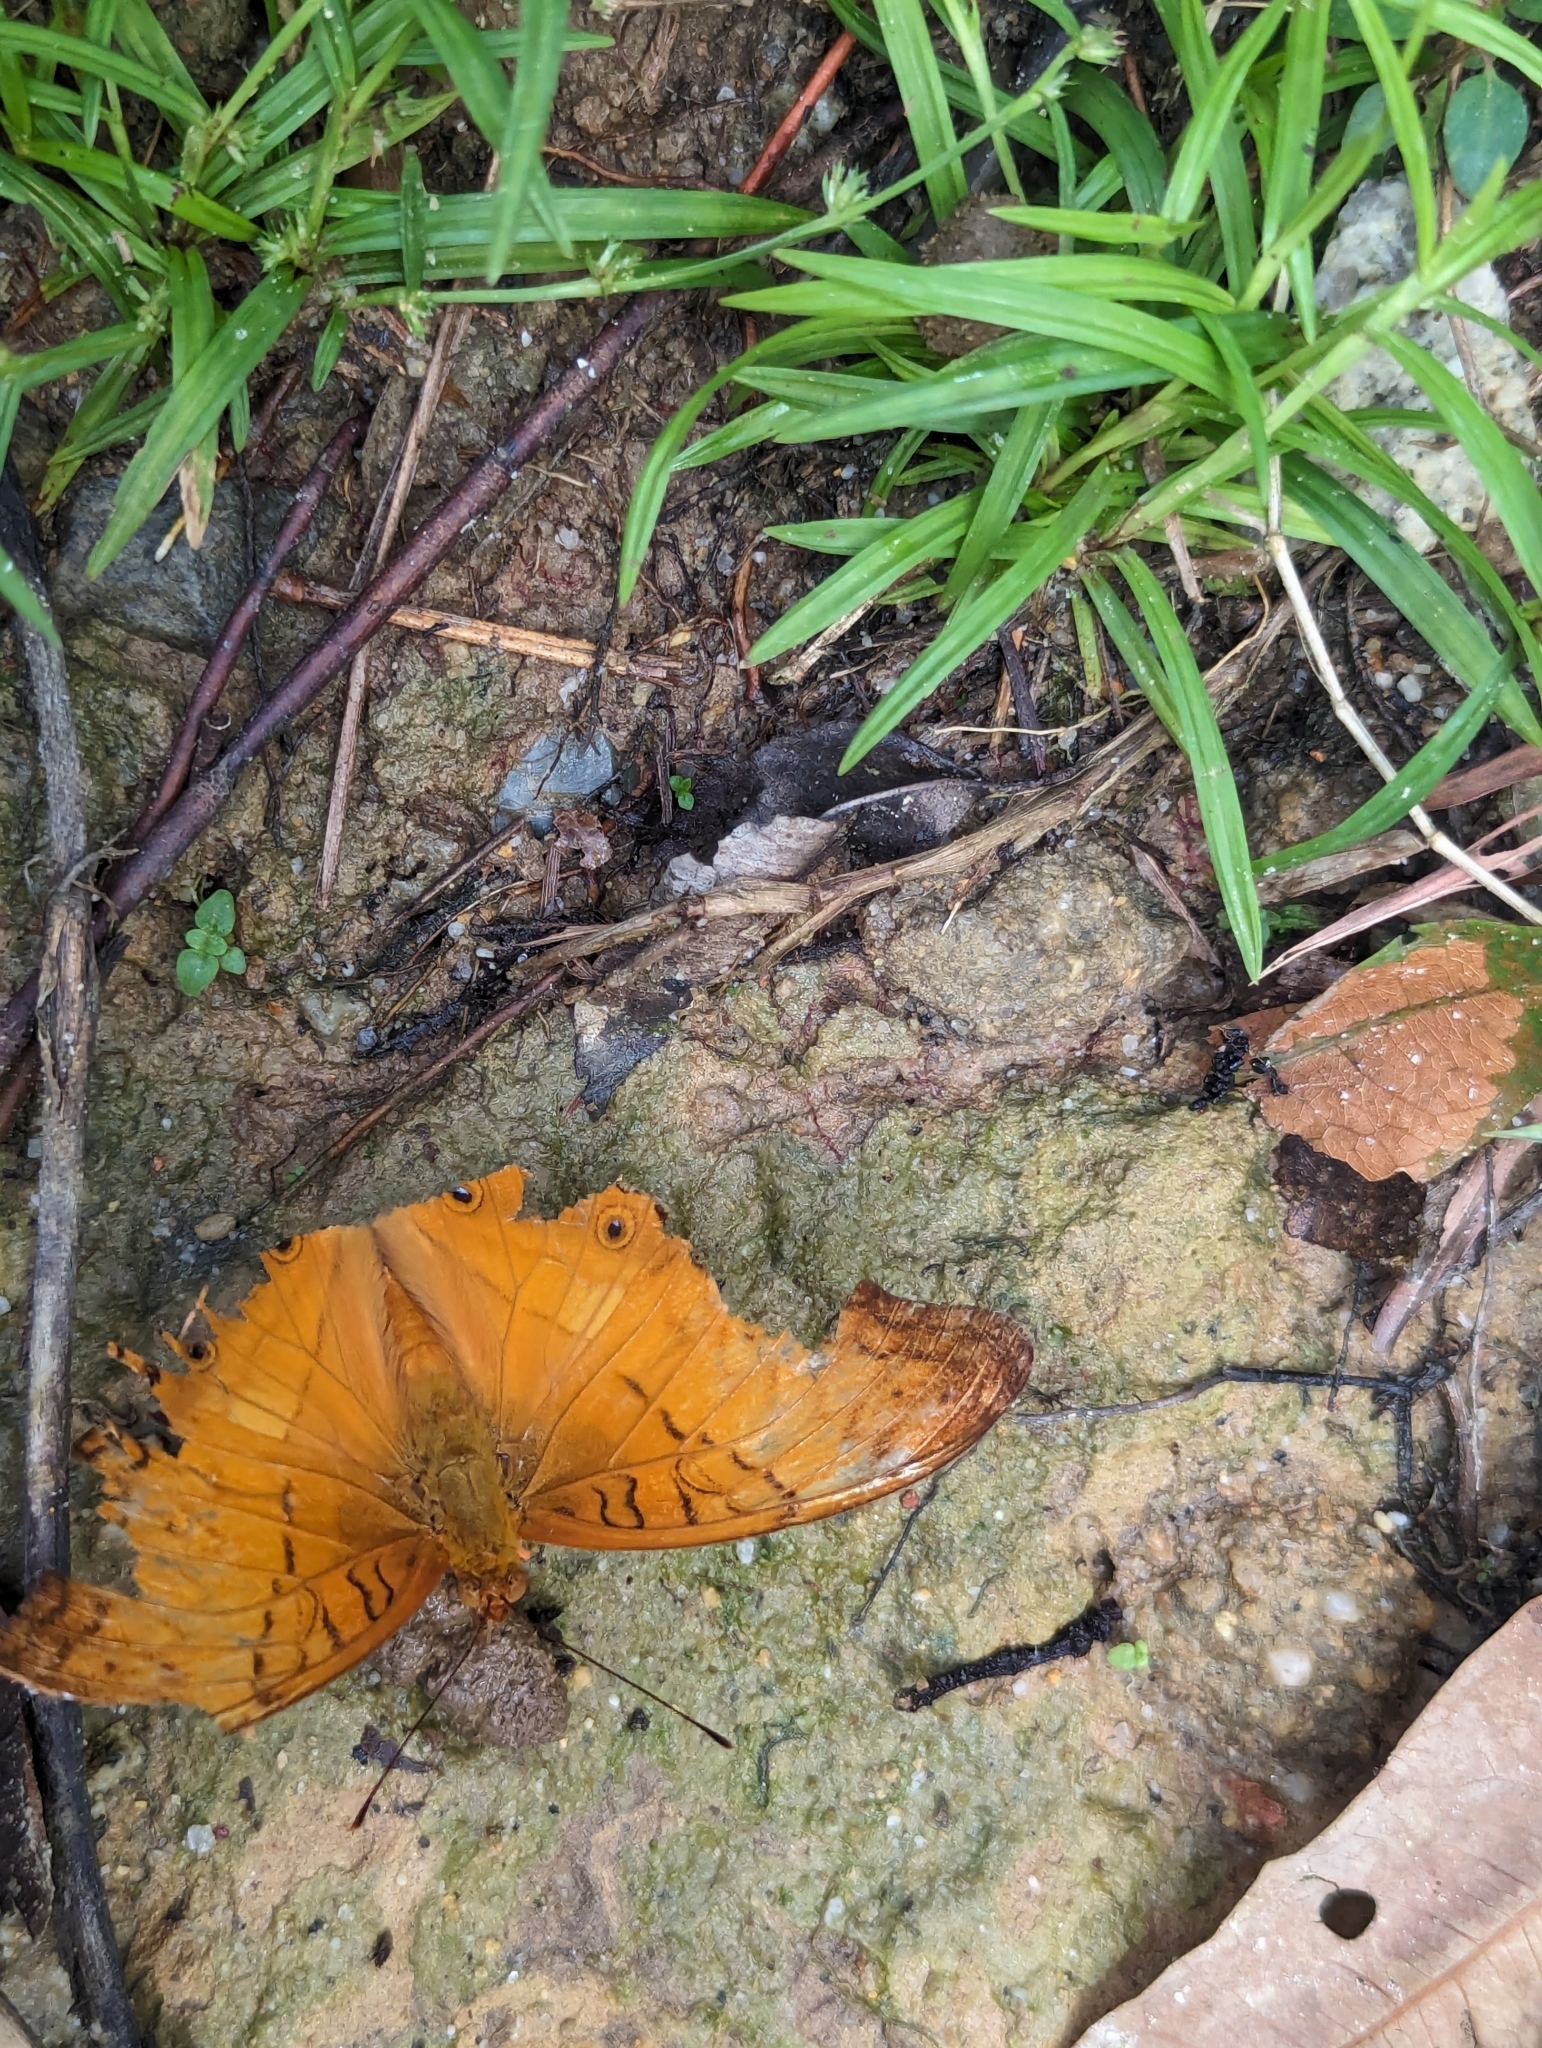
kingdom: Animalia
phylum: Arthropoda
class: Insecta
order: Lepidoptera
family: Nymphalidae
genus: Vindula
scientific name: Vindula deione
